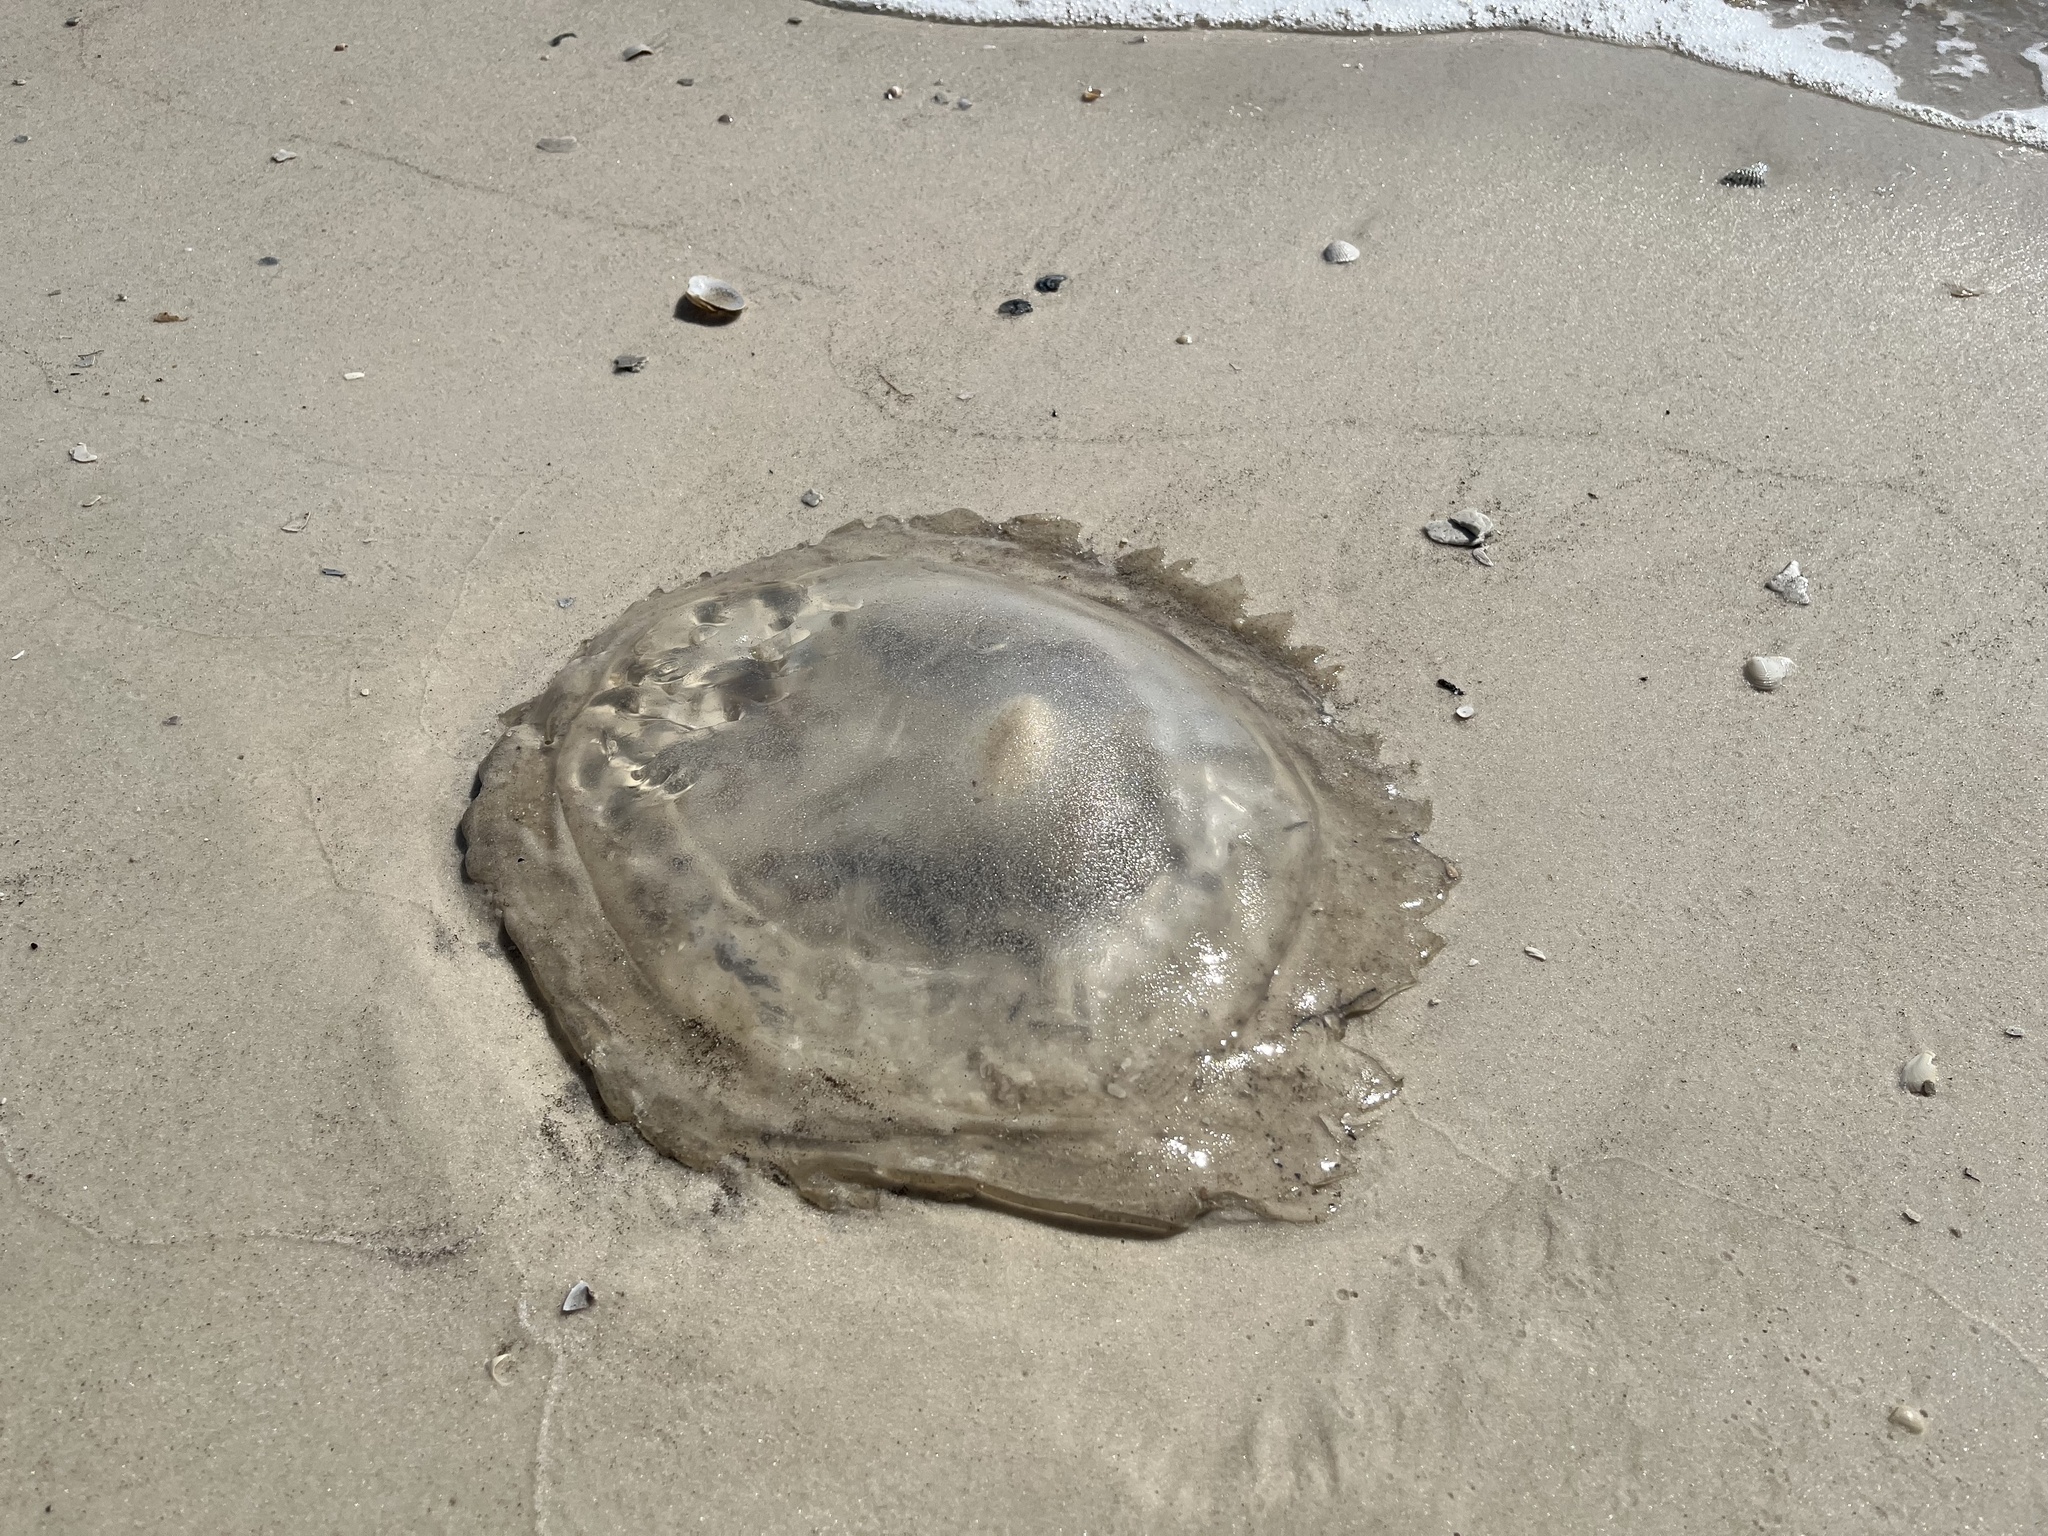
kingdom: Animalia
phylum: Cnidaria
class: Scyphozoa
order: Rhizostomeae
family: Rhizostomatidae
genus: Rhopilema
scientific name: Rhopilema verrilli
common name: Mushroom cap jellyfish
